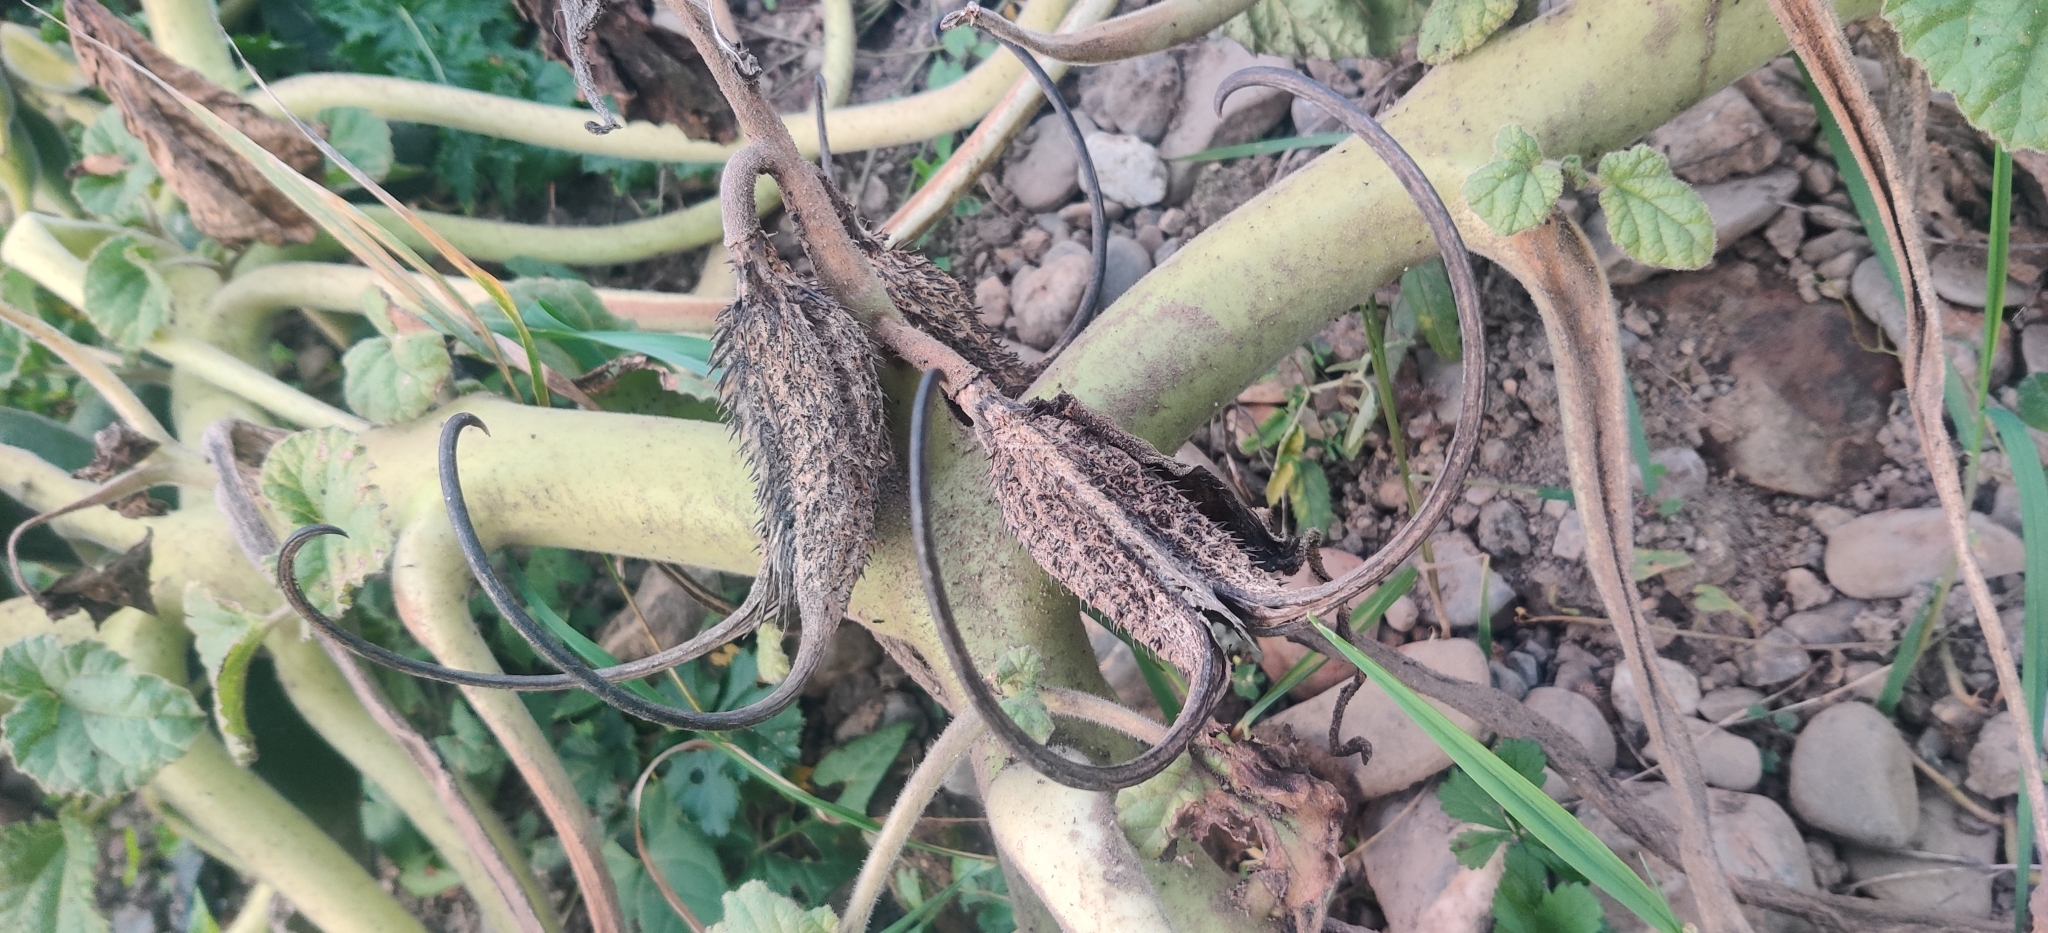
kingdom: Plantae
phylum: Tracheophyta
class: Magnoliopsida
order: Lamiales
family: Martyniaceae
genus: Ibicella
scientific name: Ibicella lutea
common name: Yellow unicorn-plant
